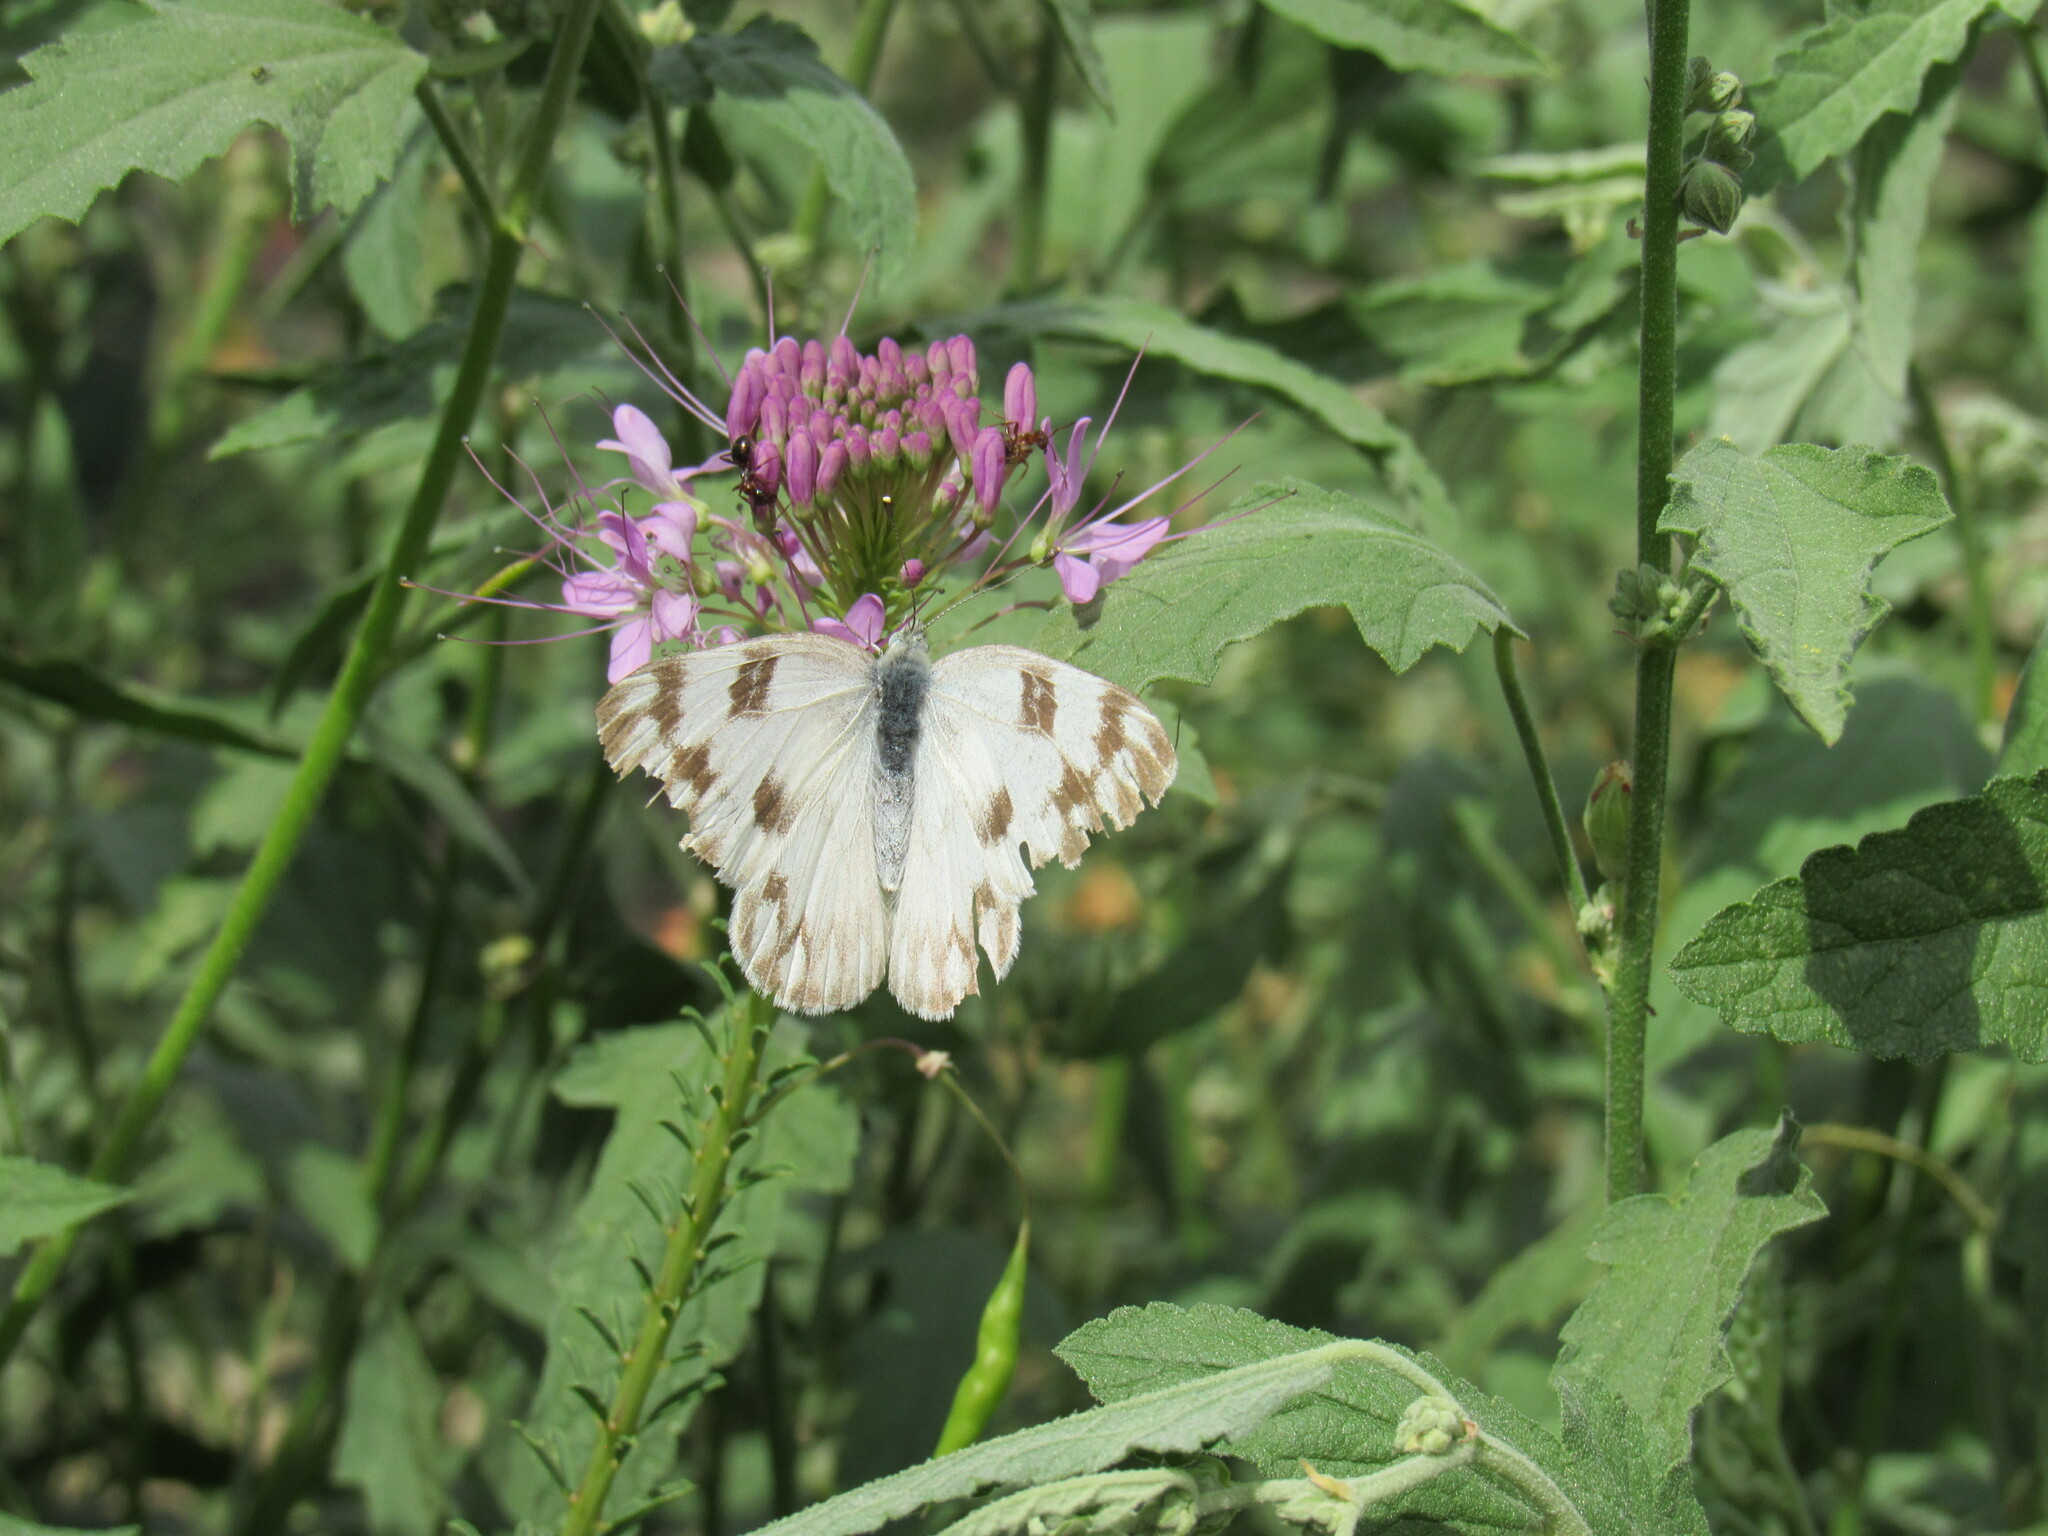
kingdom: Animalia
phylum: Arthropoda
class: Insecta
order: Lepidoptera
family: Pieridae
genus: Pontia
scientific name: Pontia protodice
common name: Checkered white
